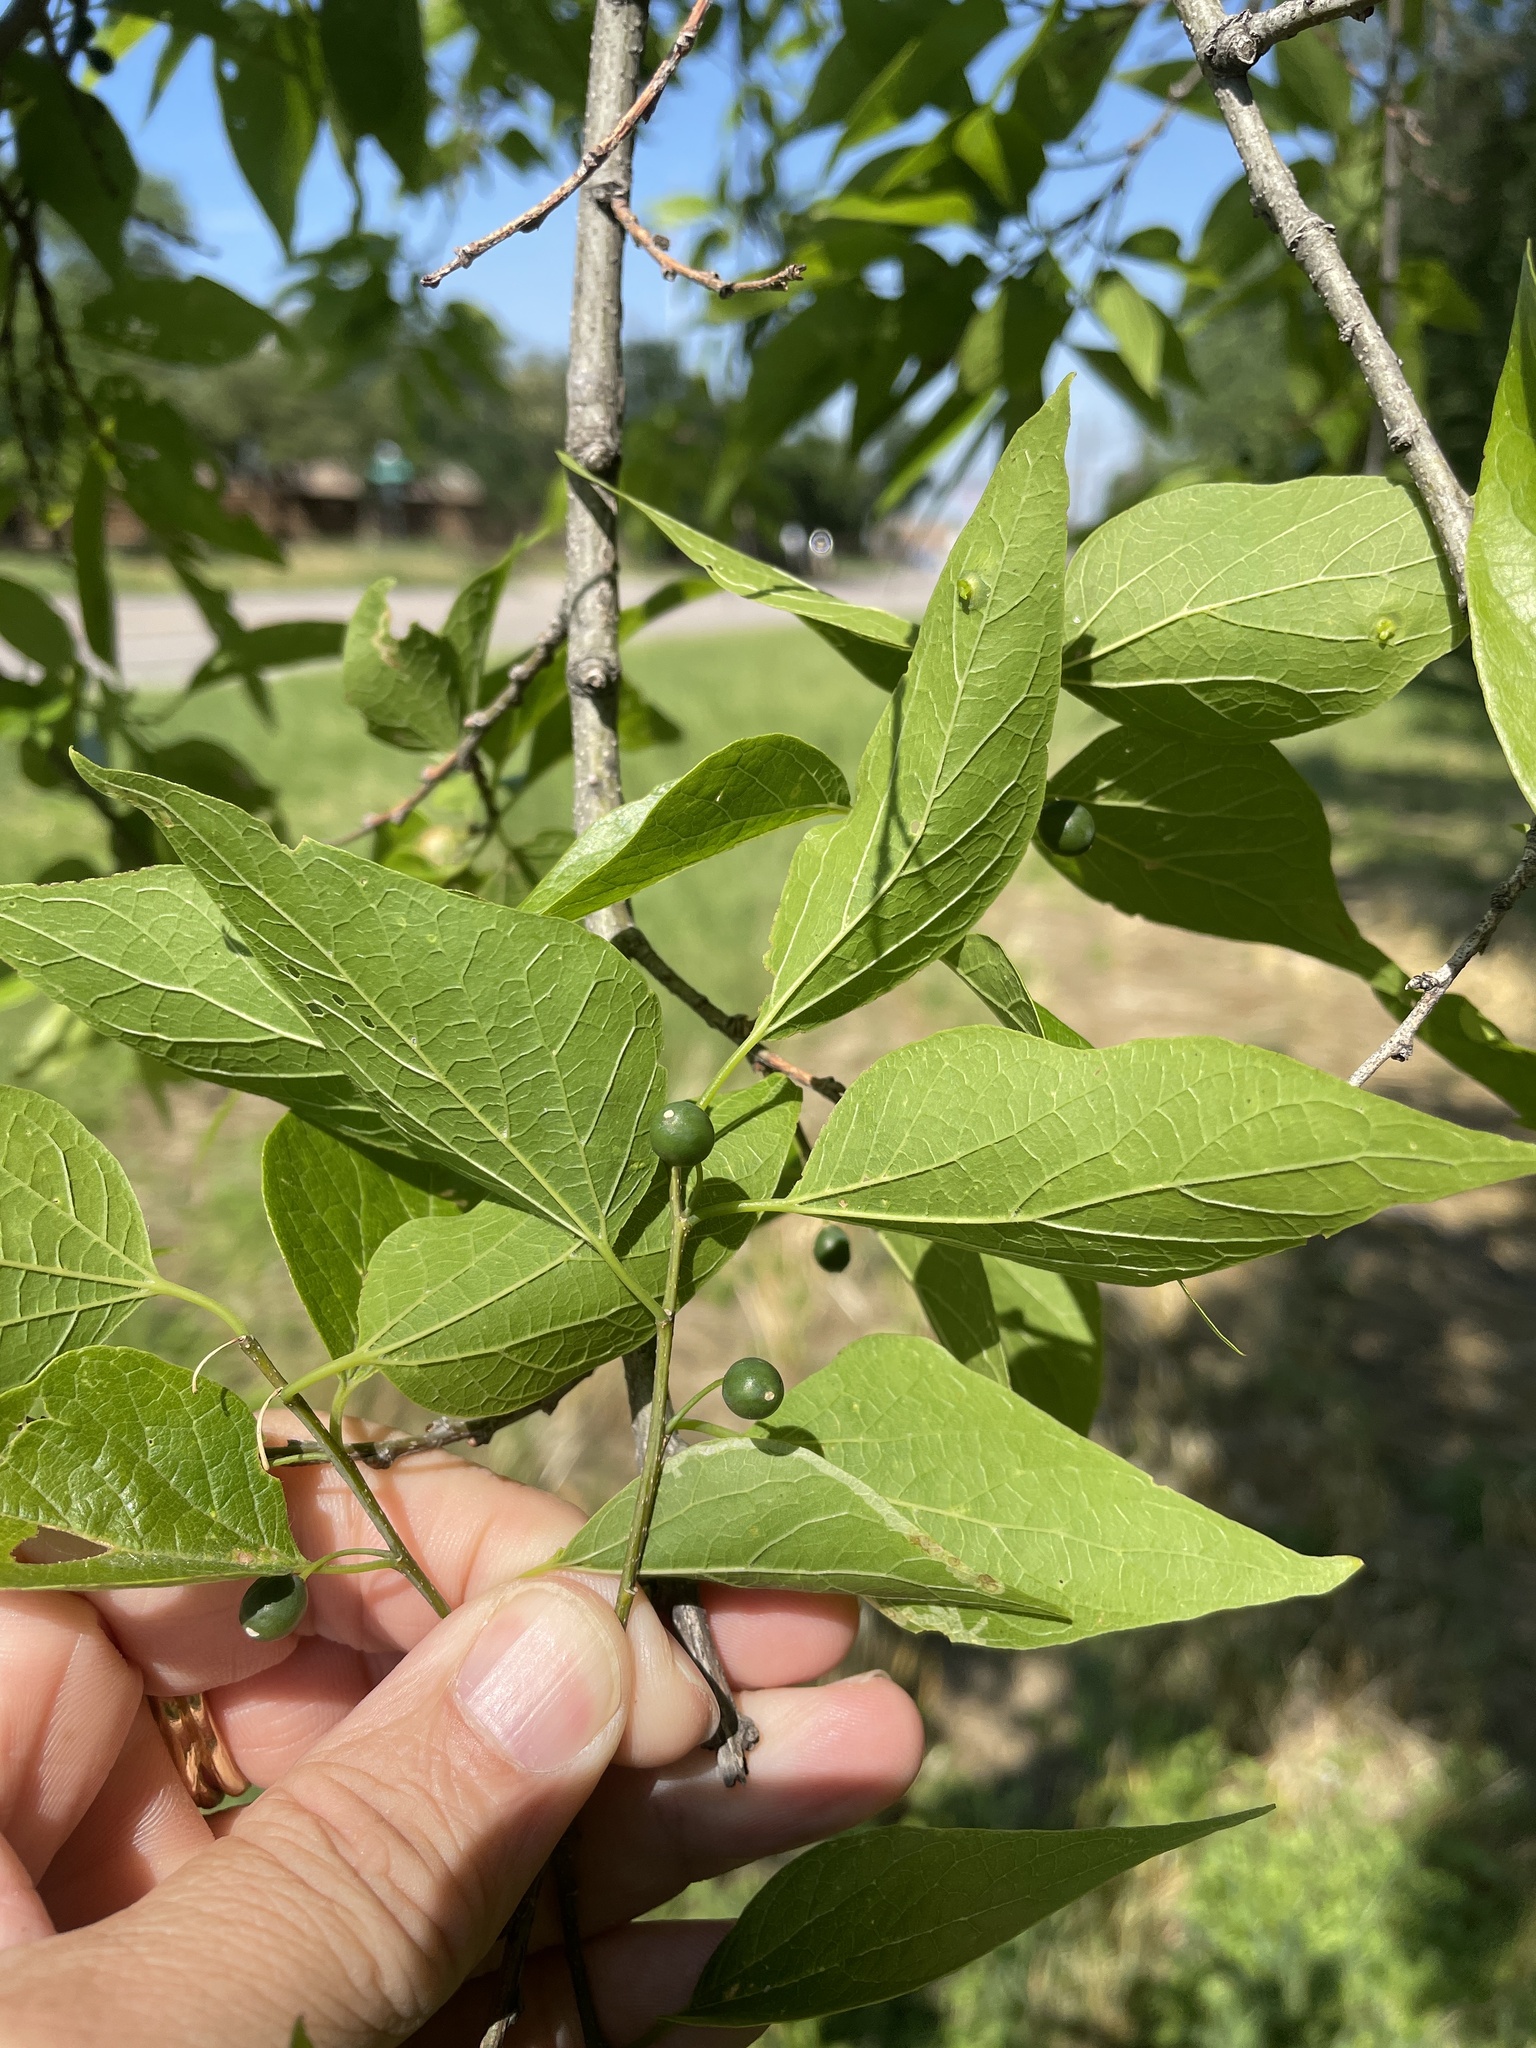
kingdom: Plantae
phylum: Tracheophyta
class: Magnoliopsida
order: Rosales
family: Cannabaceae
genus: Celtis
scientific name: Celtis laevigata
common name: Sugarberry
